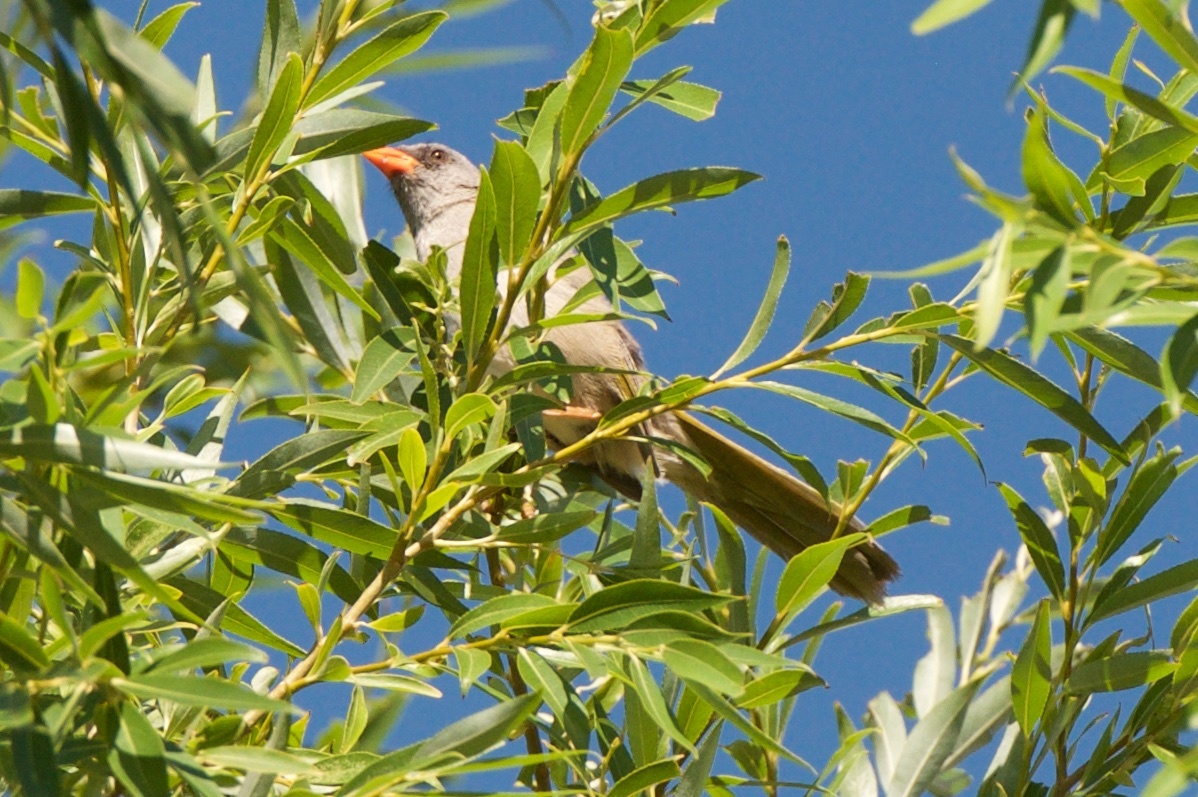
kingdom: Animalia
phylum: Chordata
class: Aves
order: Passeriformes
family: Thraupidae
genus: Embernagra
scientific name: Embernagra platensis
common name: Pampa finch
